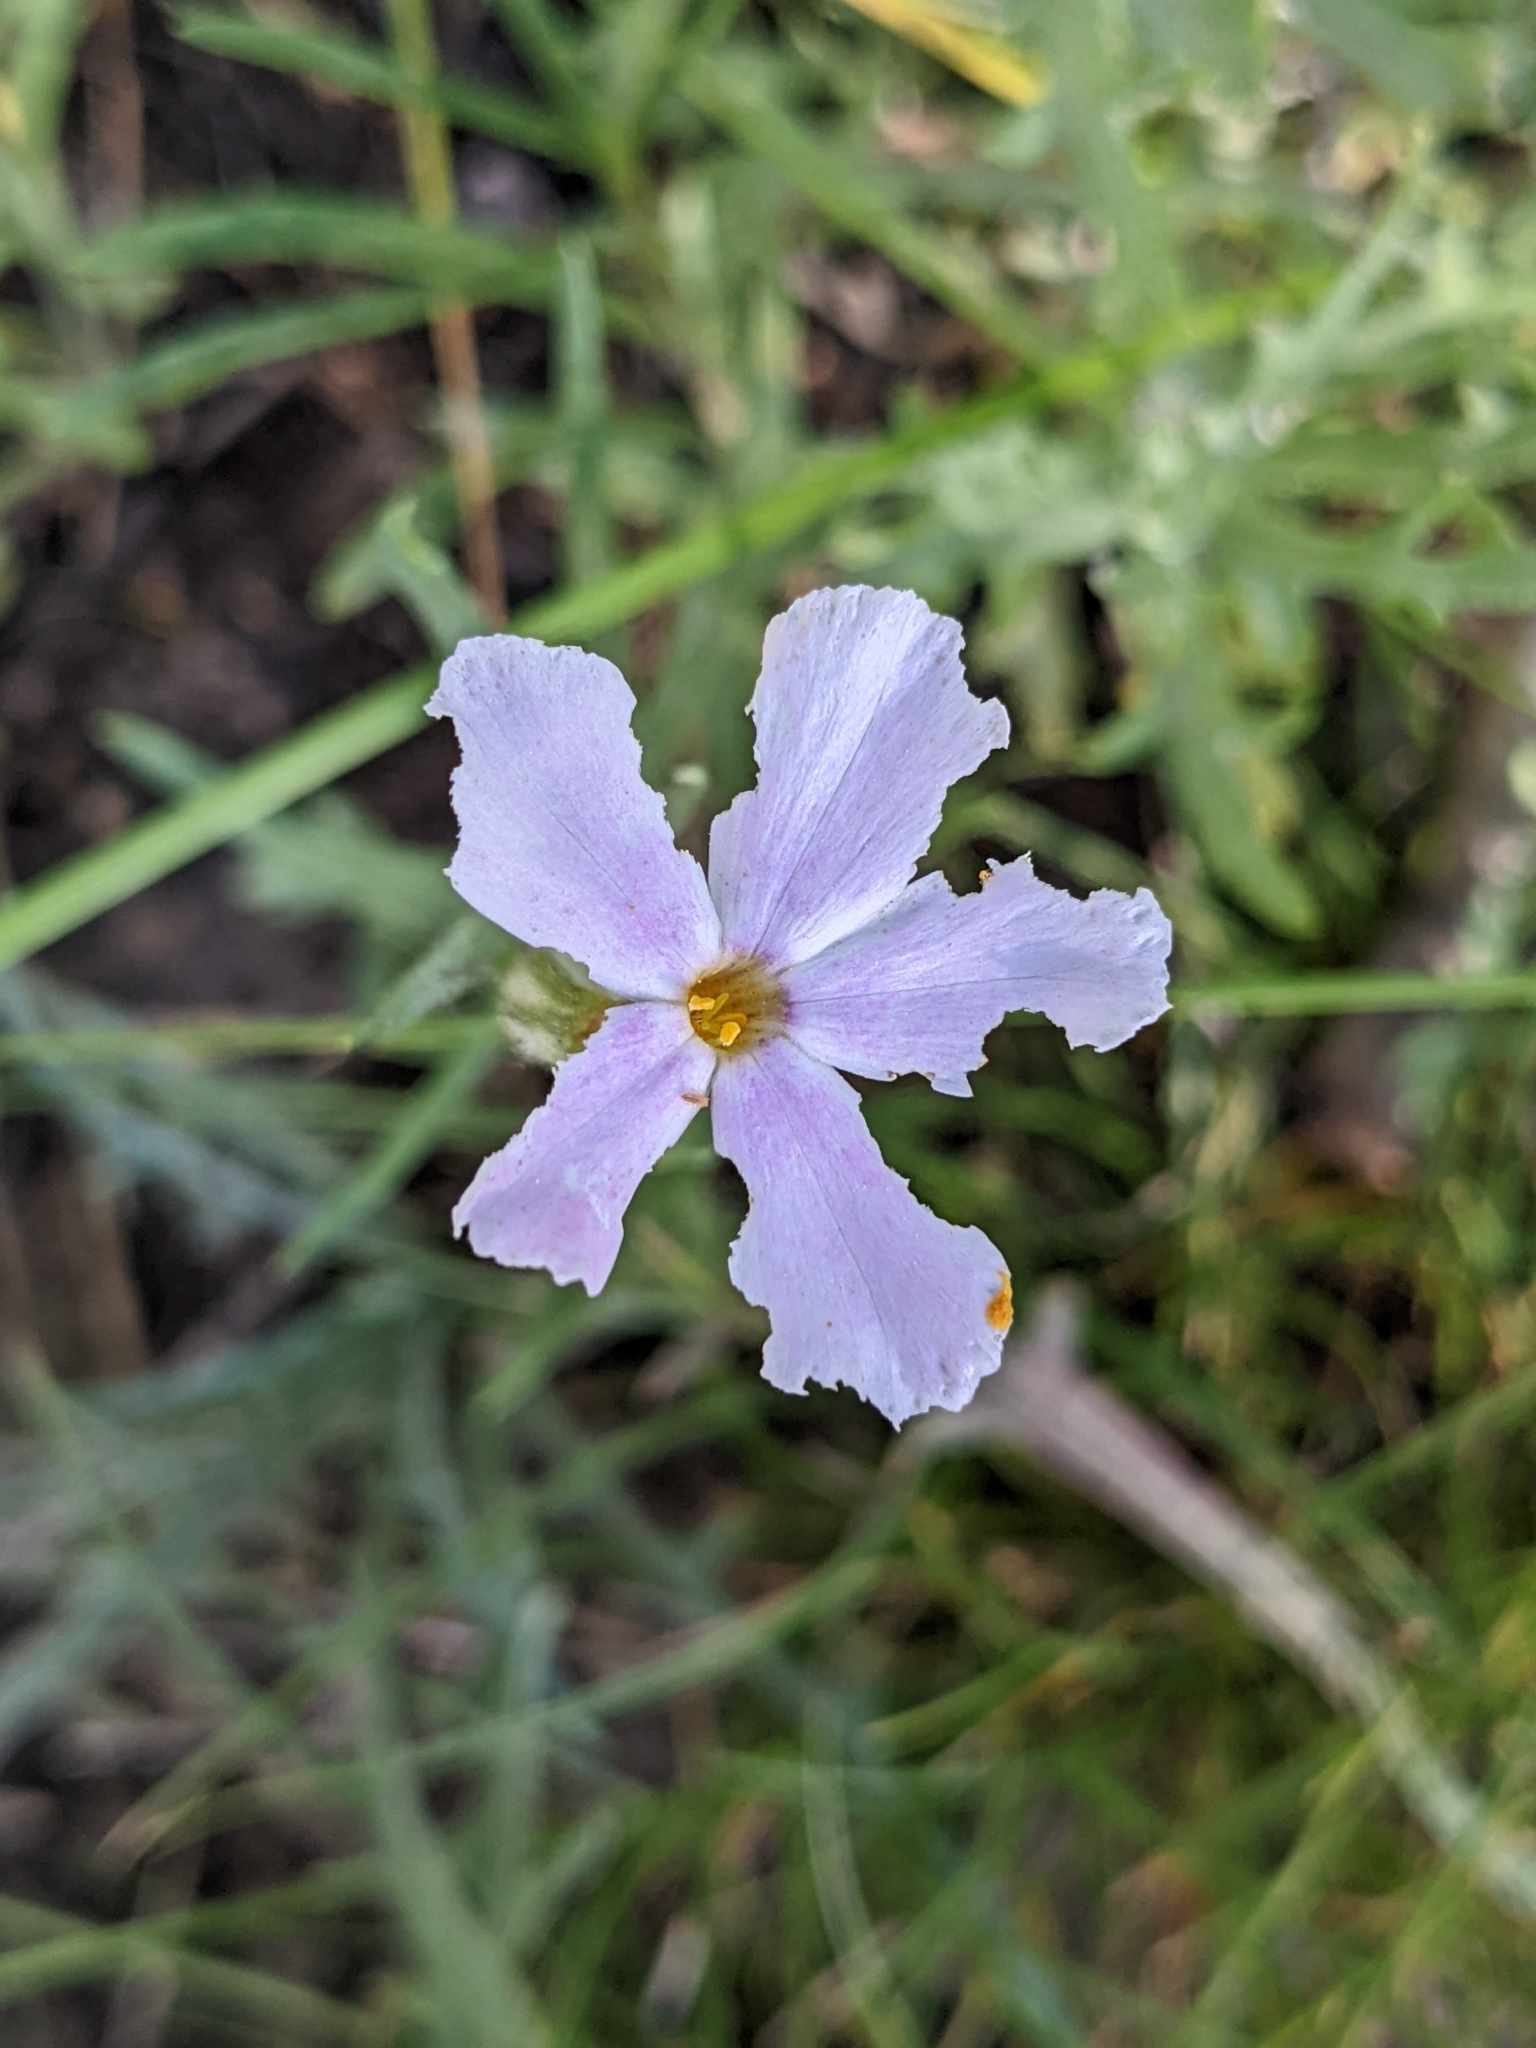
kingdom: Plantae
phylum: Tracheophyta
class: Magnoliopsida
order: Ericales
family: Polemoniaceae
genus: Phlox
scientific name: Phlox longifolia
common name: Longleaf phlox
